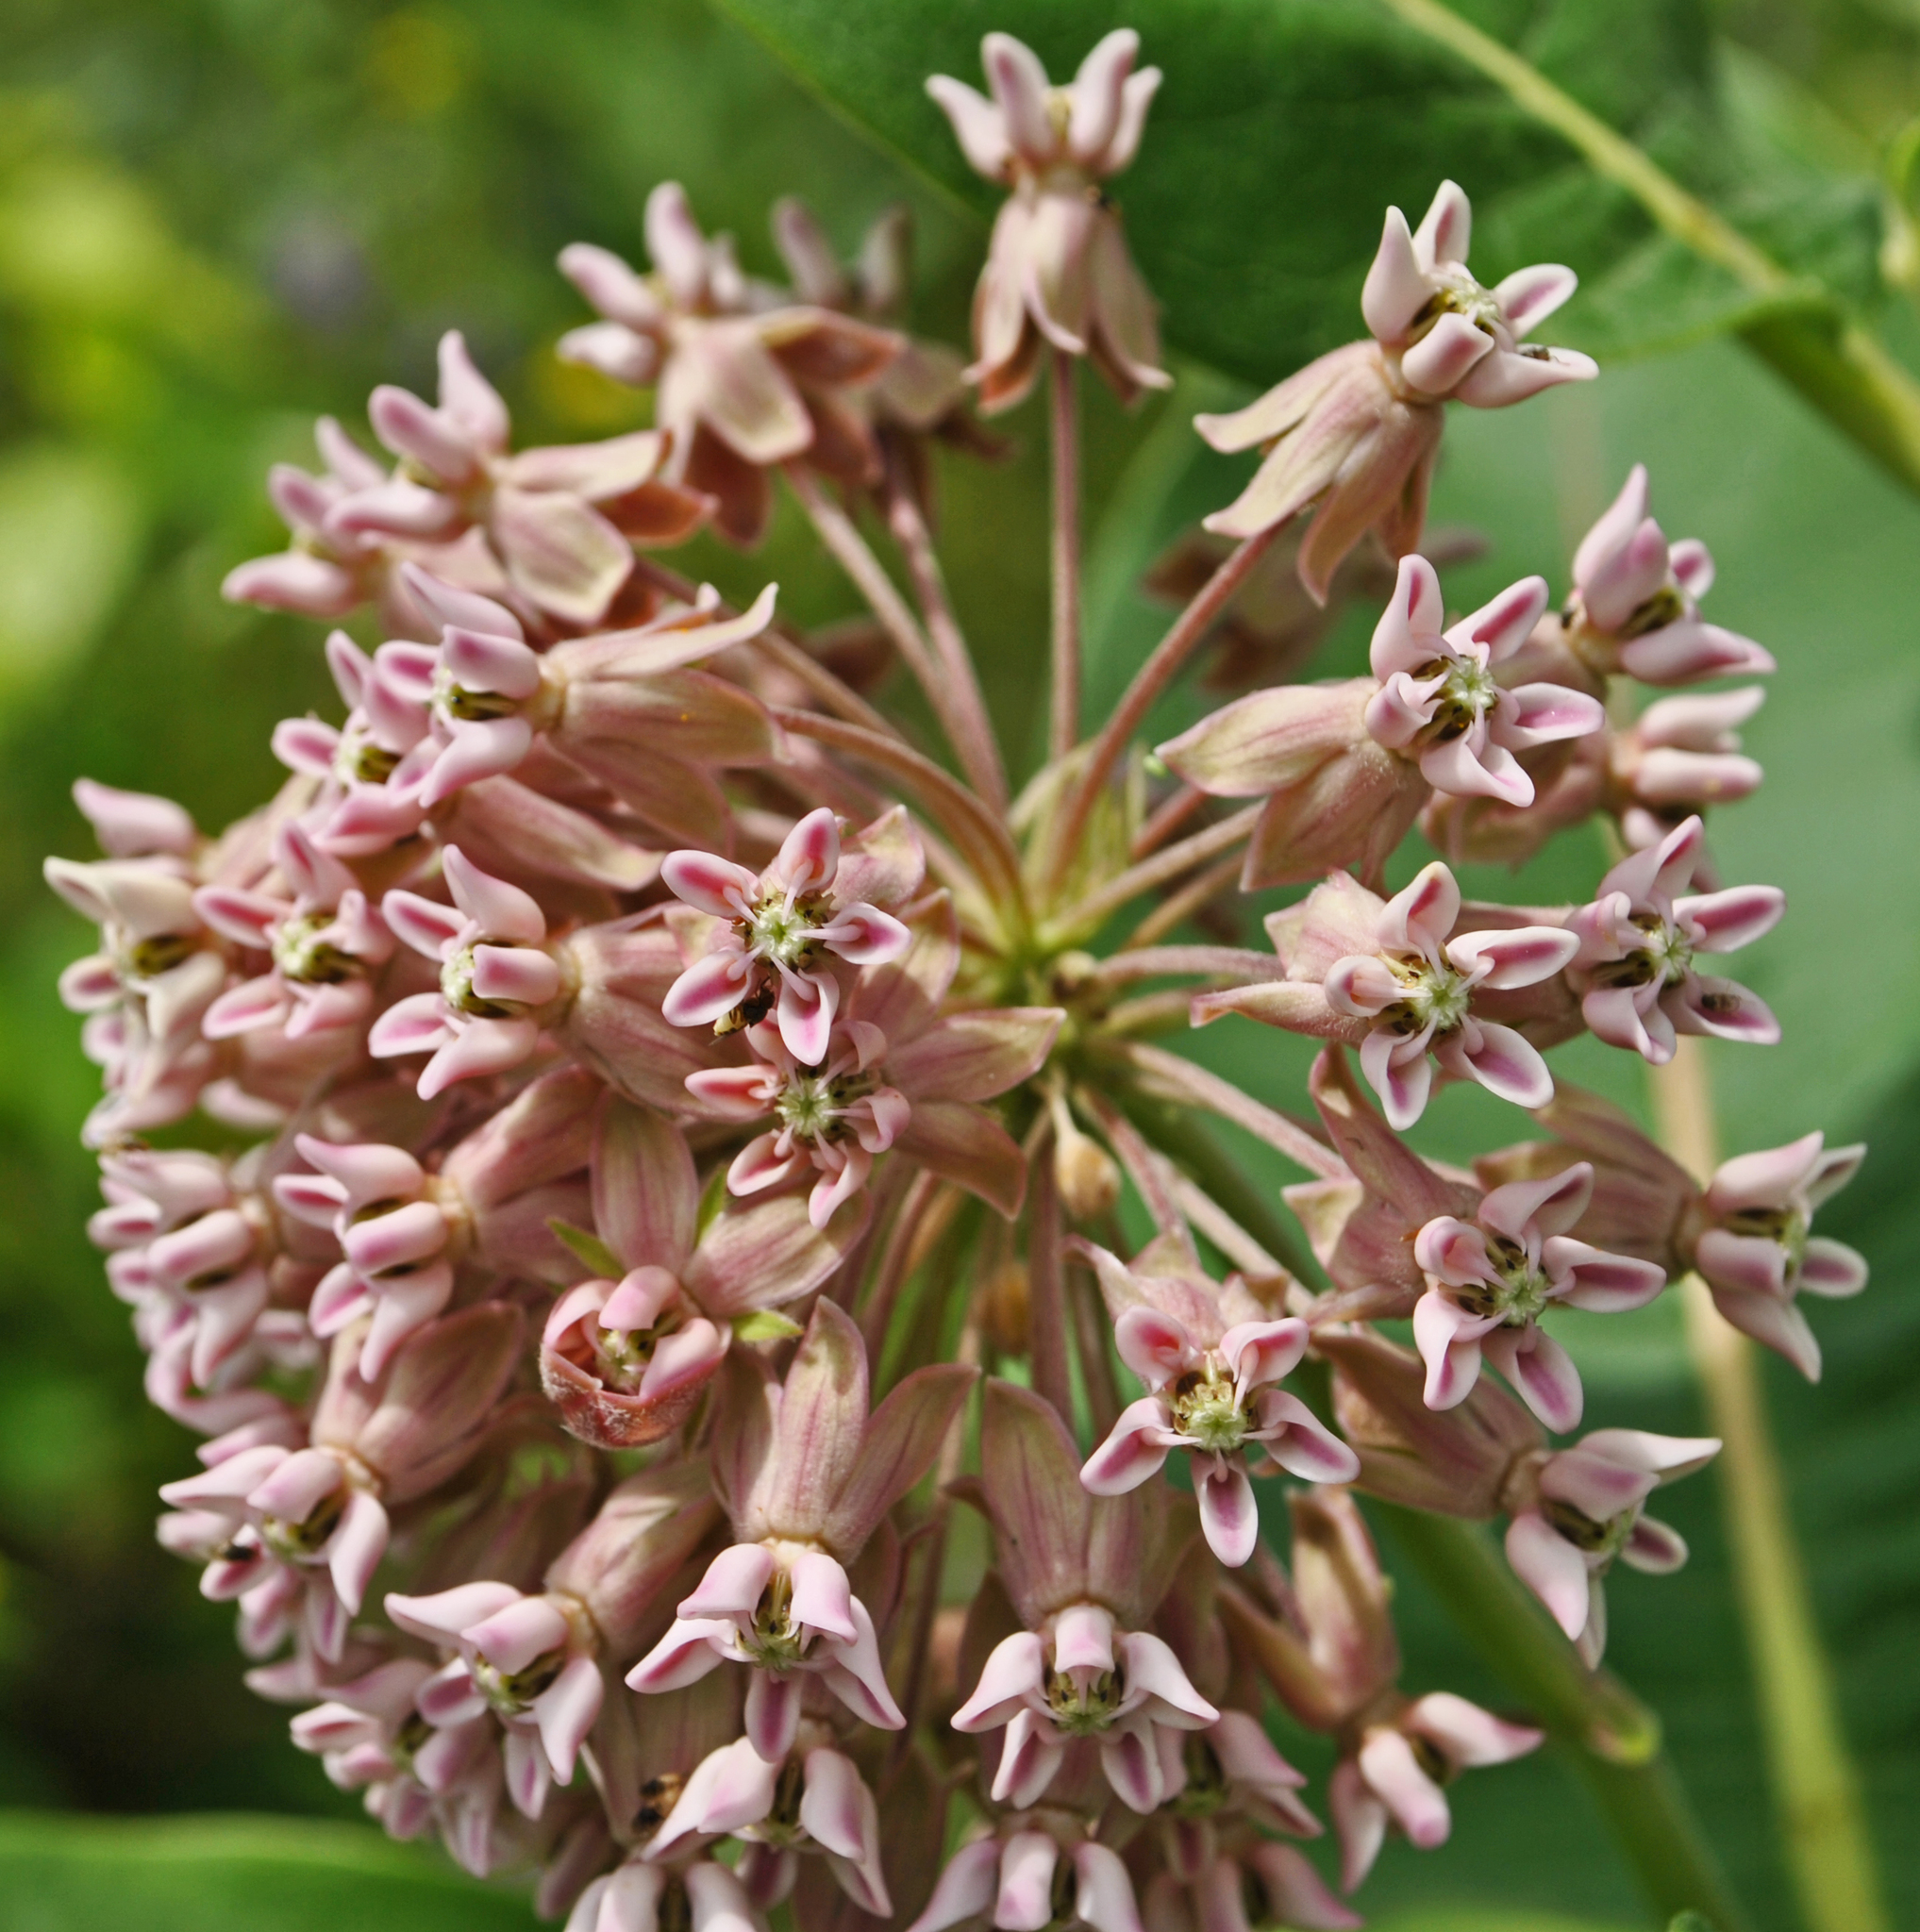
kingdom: Plantae
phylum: Tracheophyta
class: Magnoliopsida
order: Gentianales
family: Apocynaceae
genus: Asclepias
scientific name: Asclepias syriaca
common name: Common milkweed
